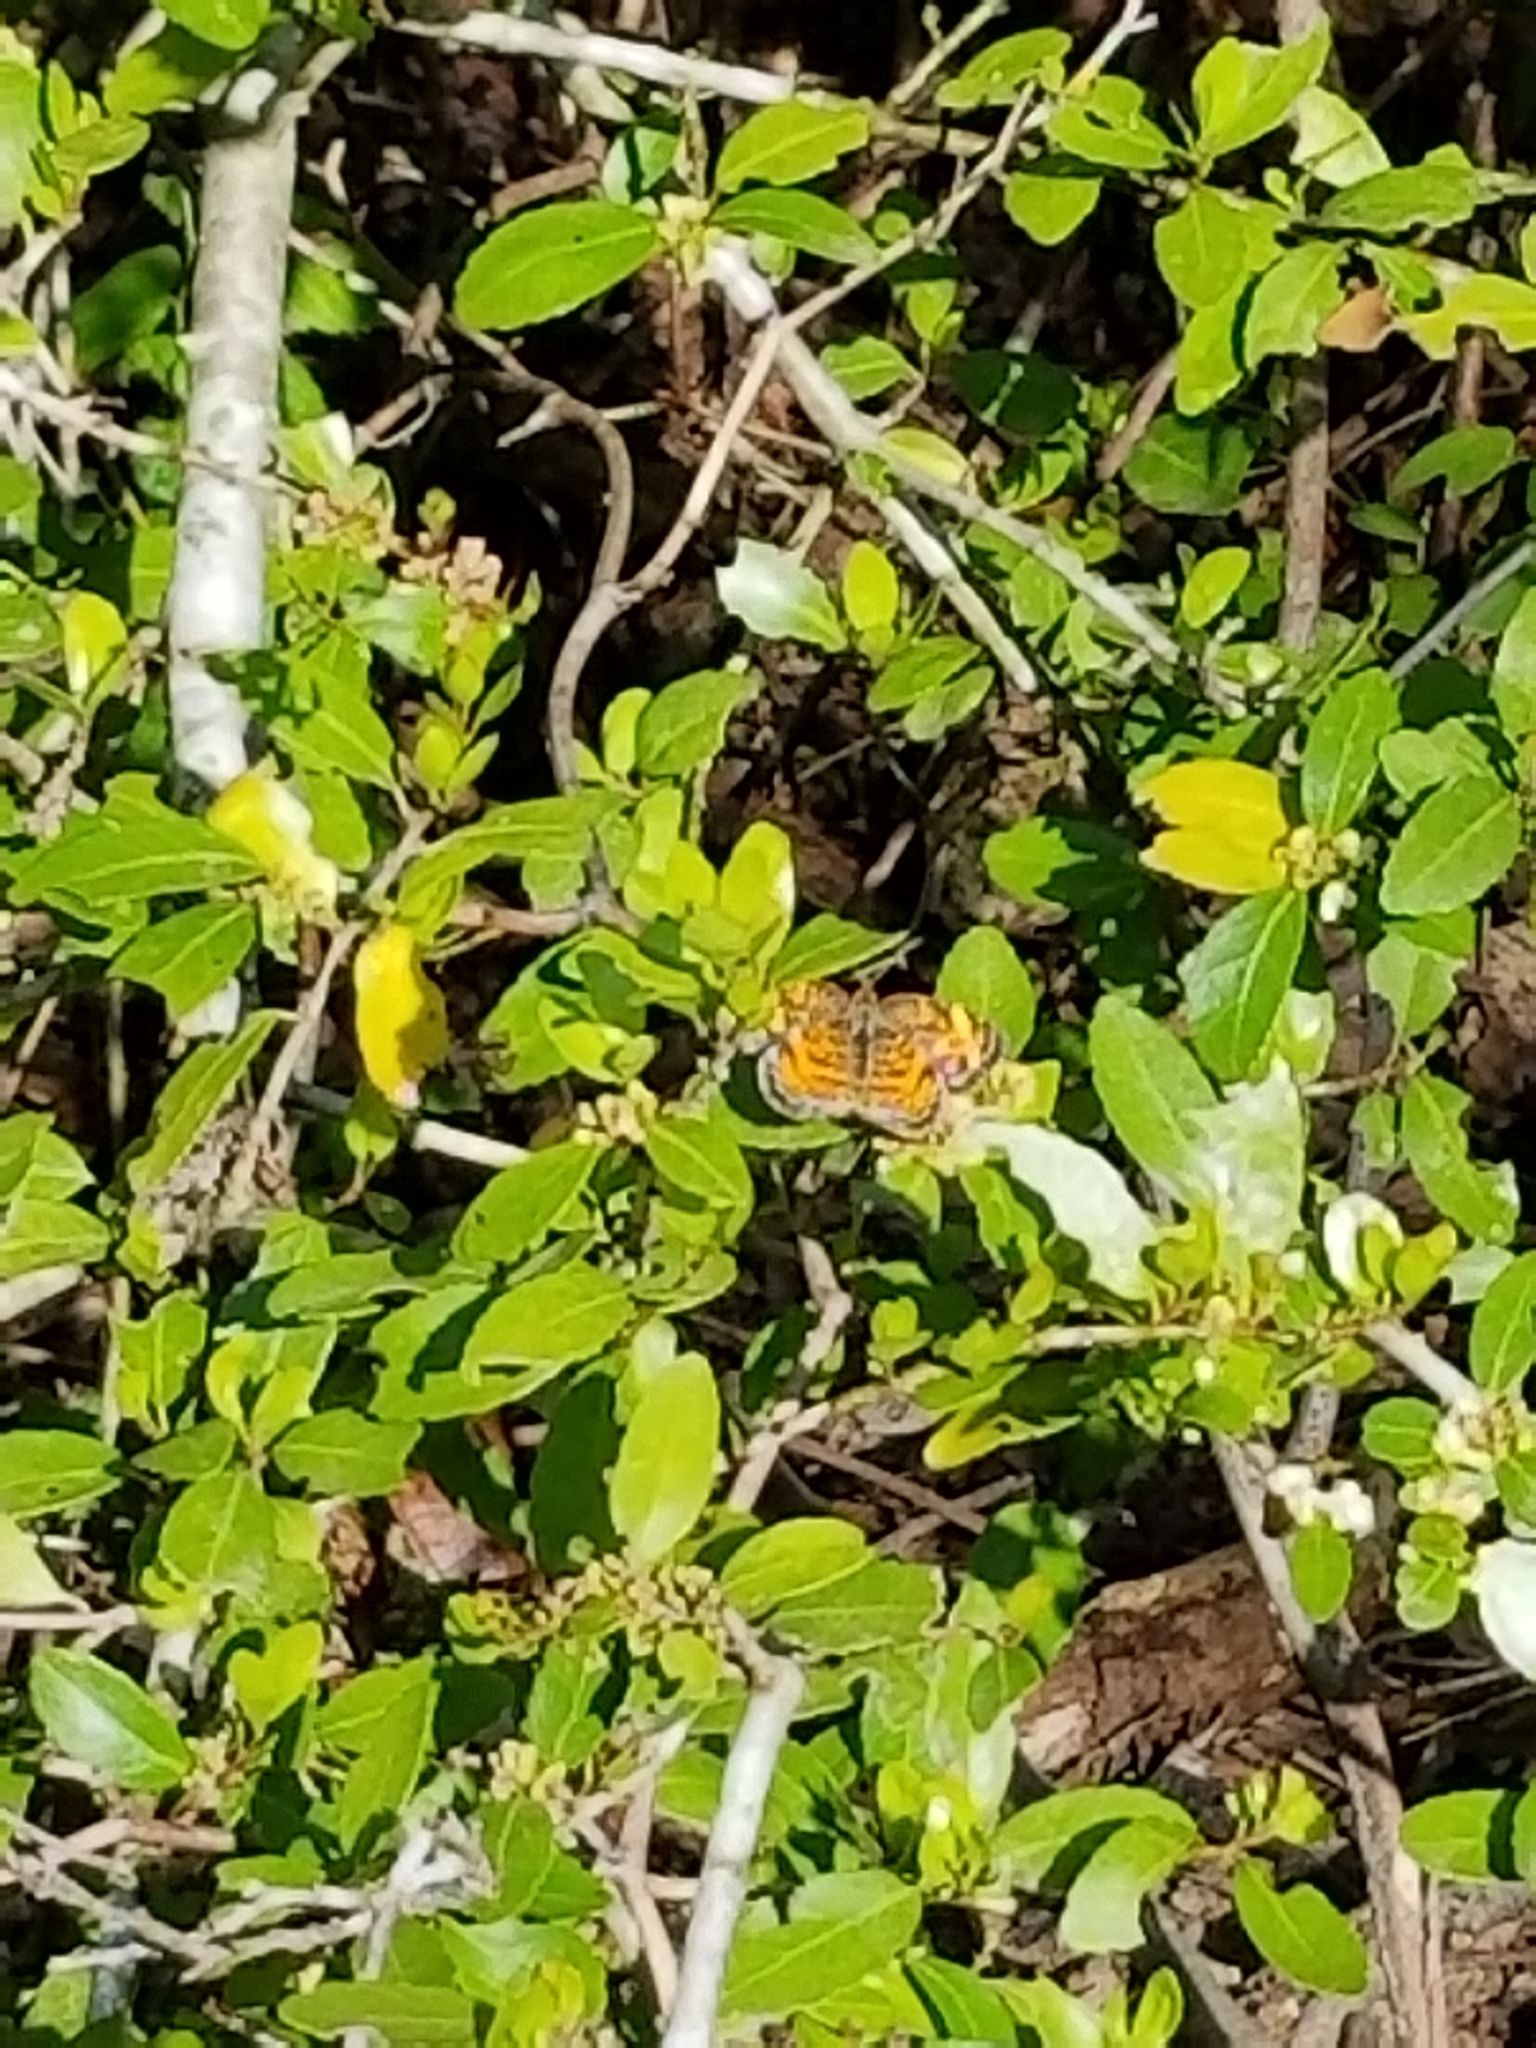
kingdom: Animalia
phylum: Arthropoda
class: Insecta
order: Lepidoptera
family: Nymphalidae
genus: Phyciodes
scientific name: Phyciodes tharos
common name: Pearl crescent
